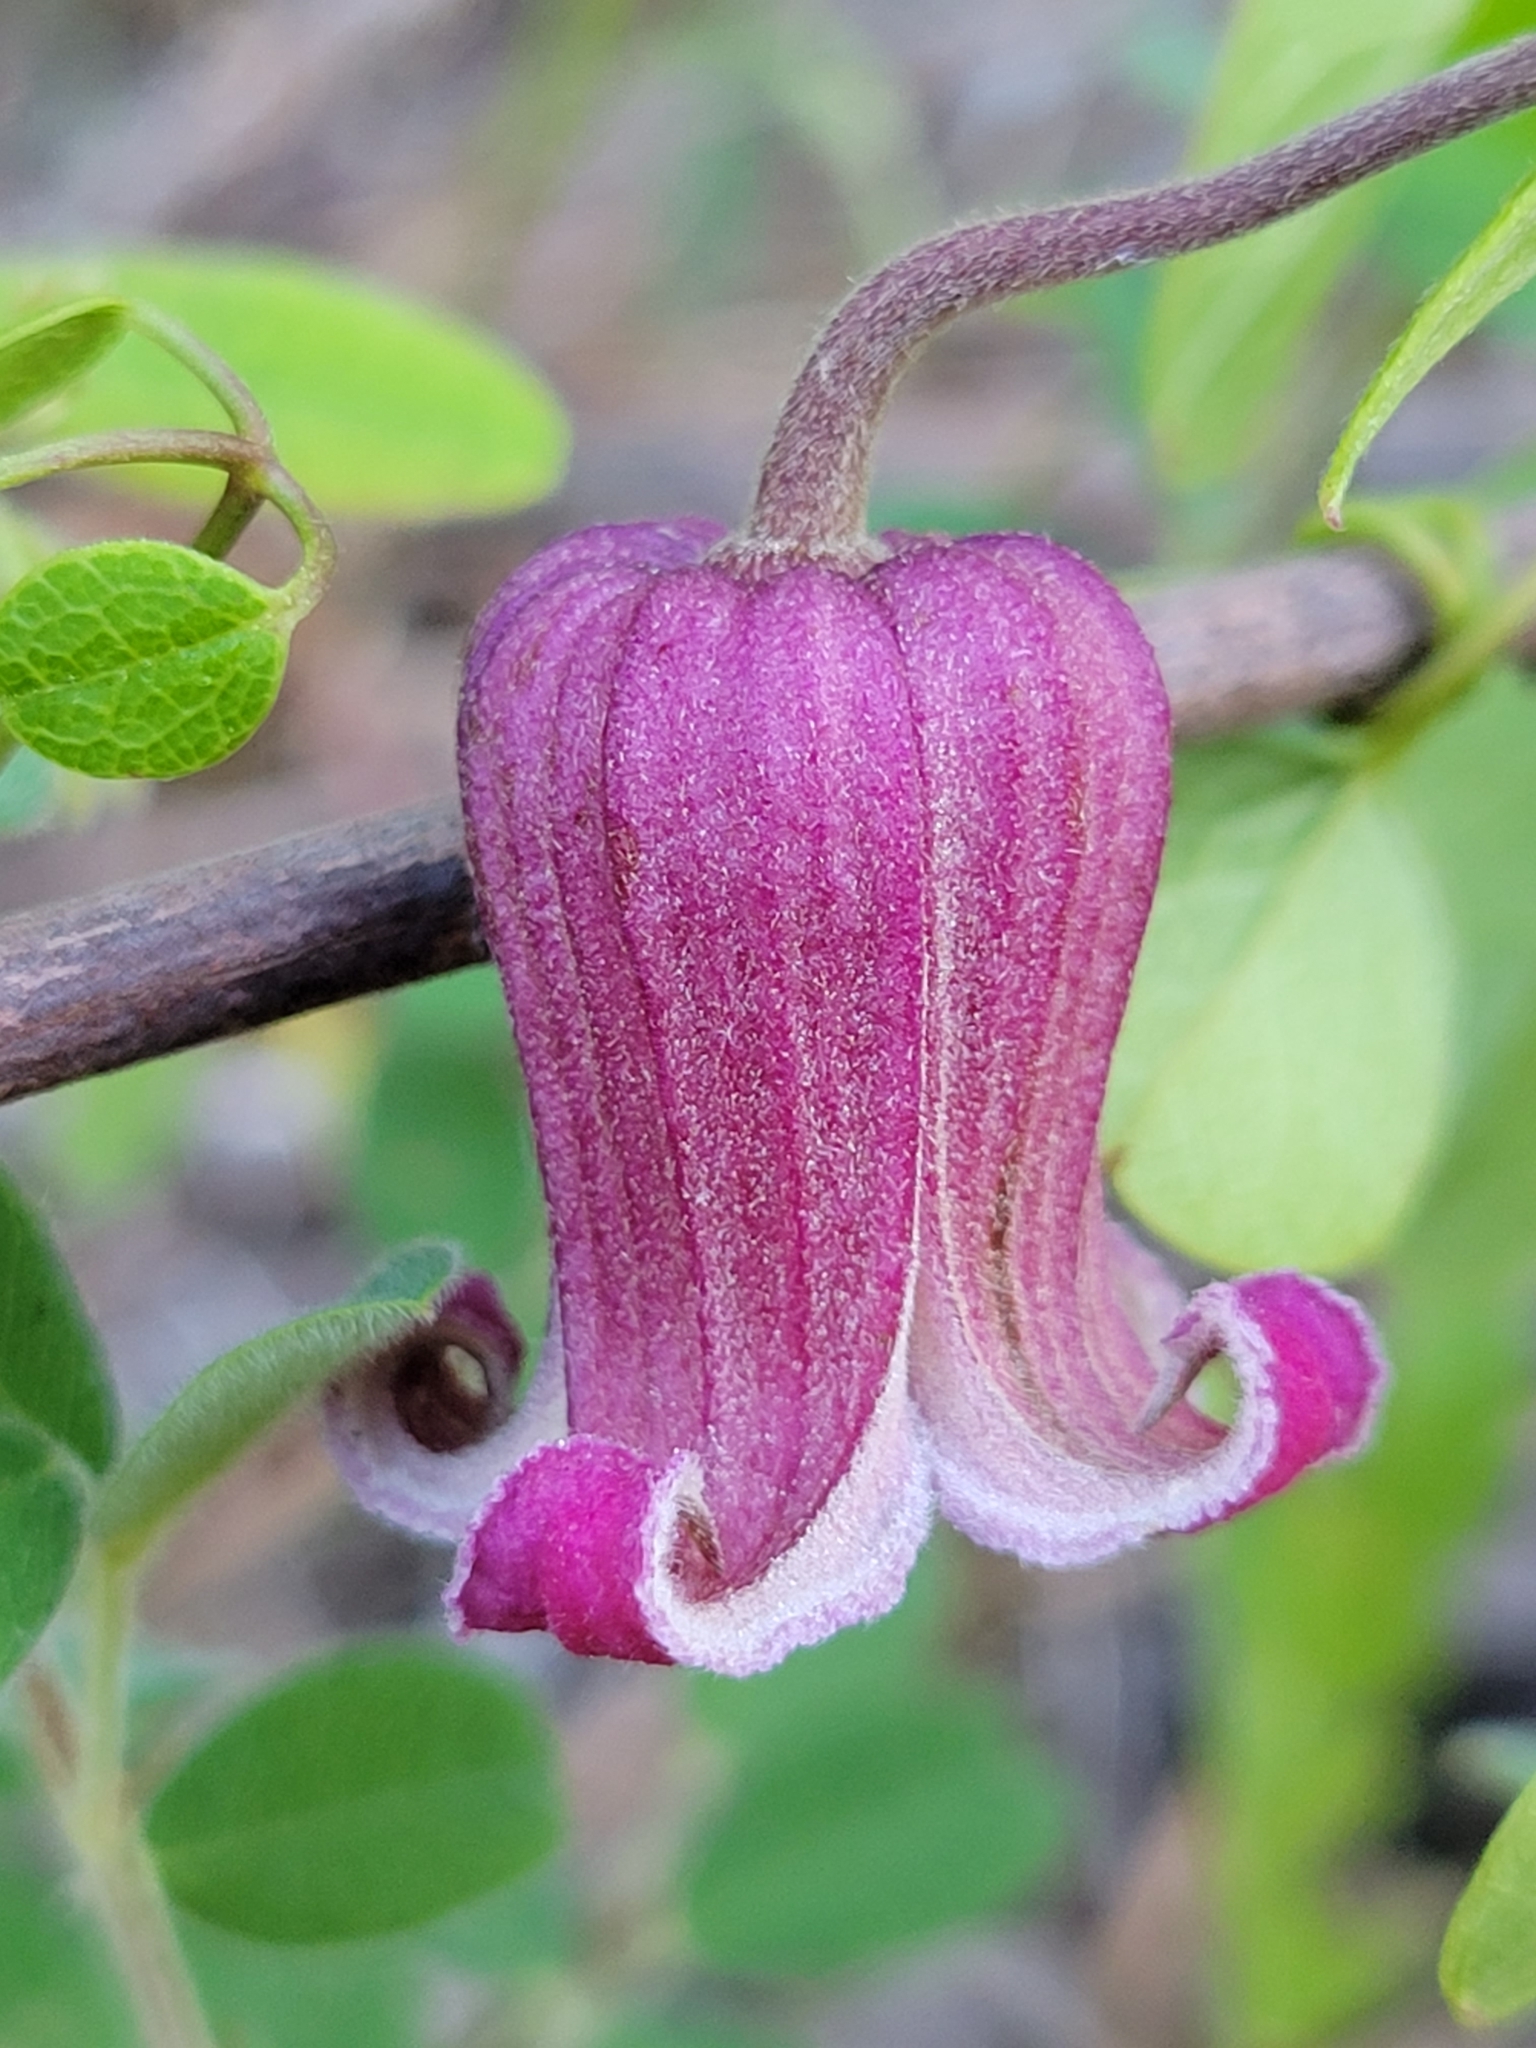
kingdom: Plantae
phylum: Tracheophyta
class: Magnoliopsida
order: Ranunculales
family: Ranunculaceae
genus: Clematis
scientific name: Clematis reticulata
